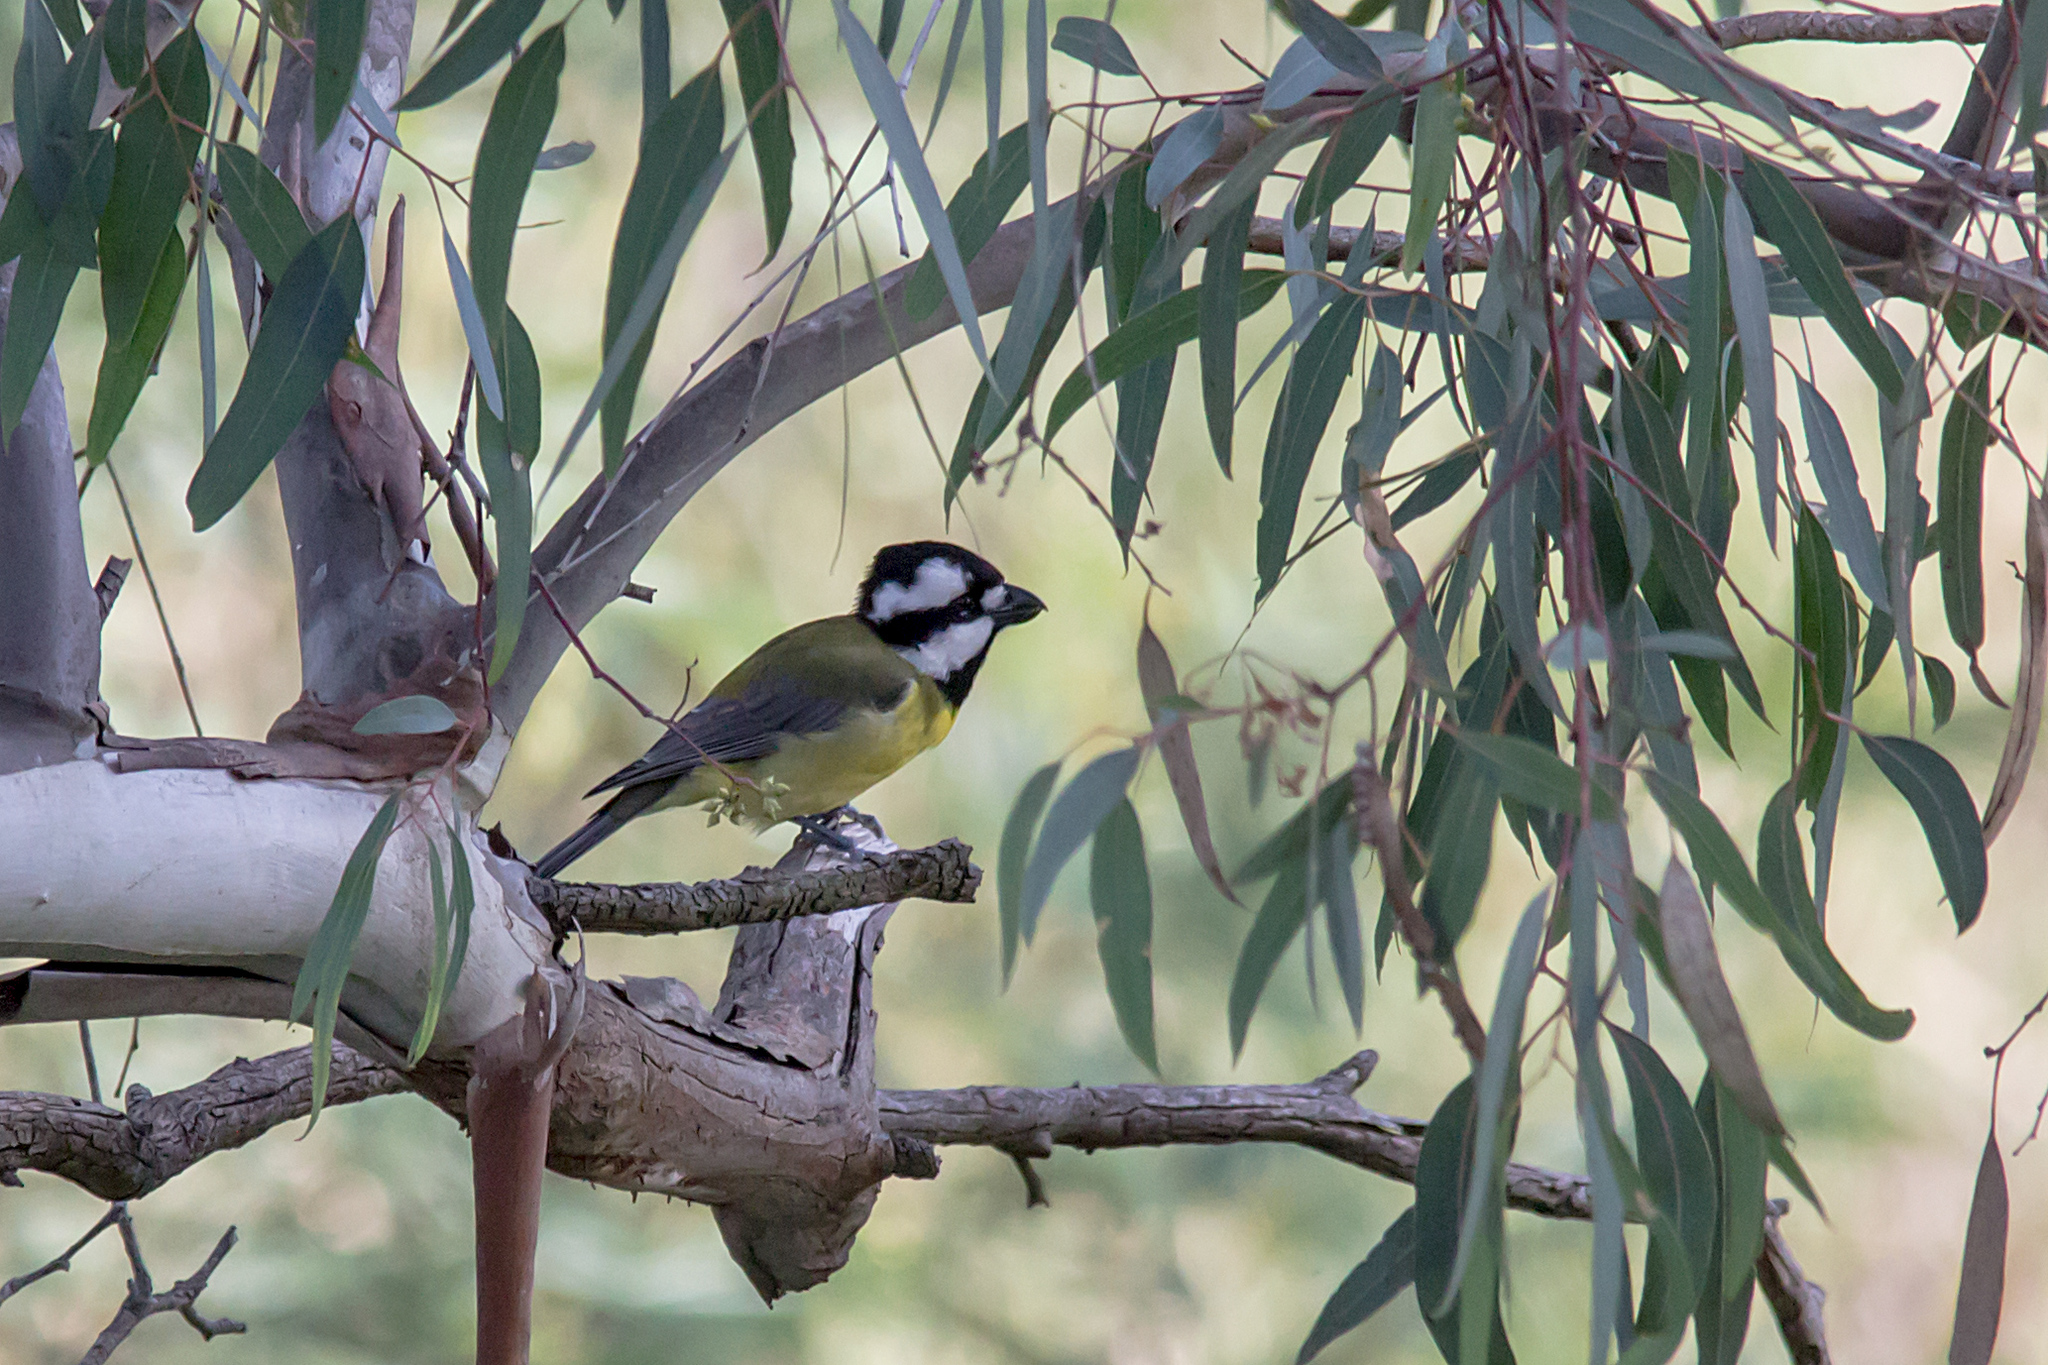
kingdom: Animalia
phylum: Chordata
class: Aves
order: Passeriformes
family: Pachycephalidae
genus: Falcunculus
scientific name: Falcunculus frontatus
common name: Crested shriketit
